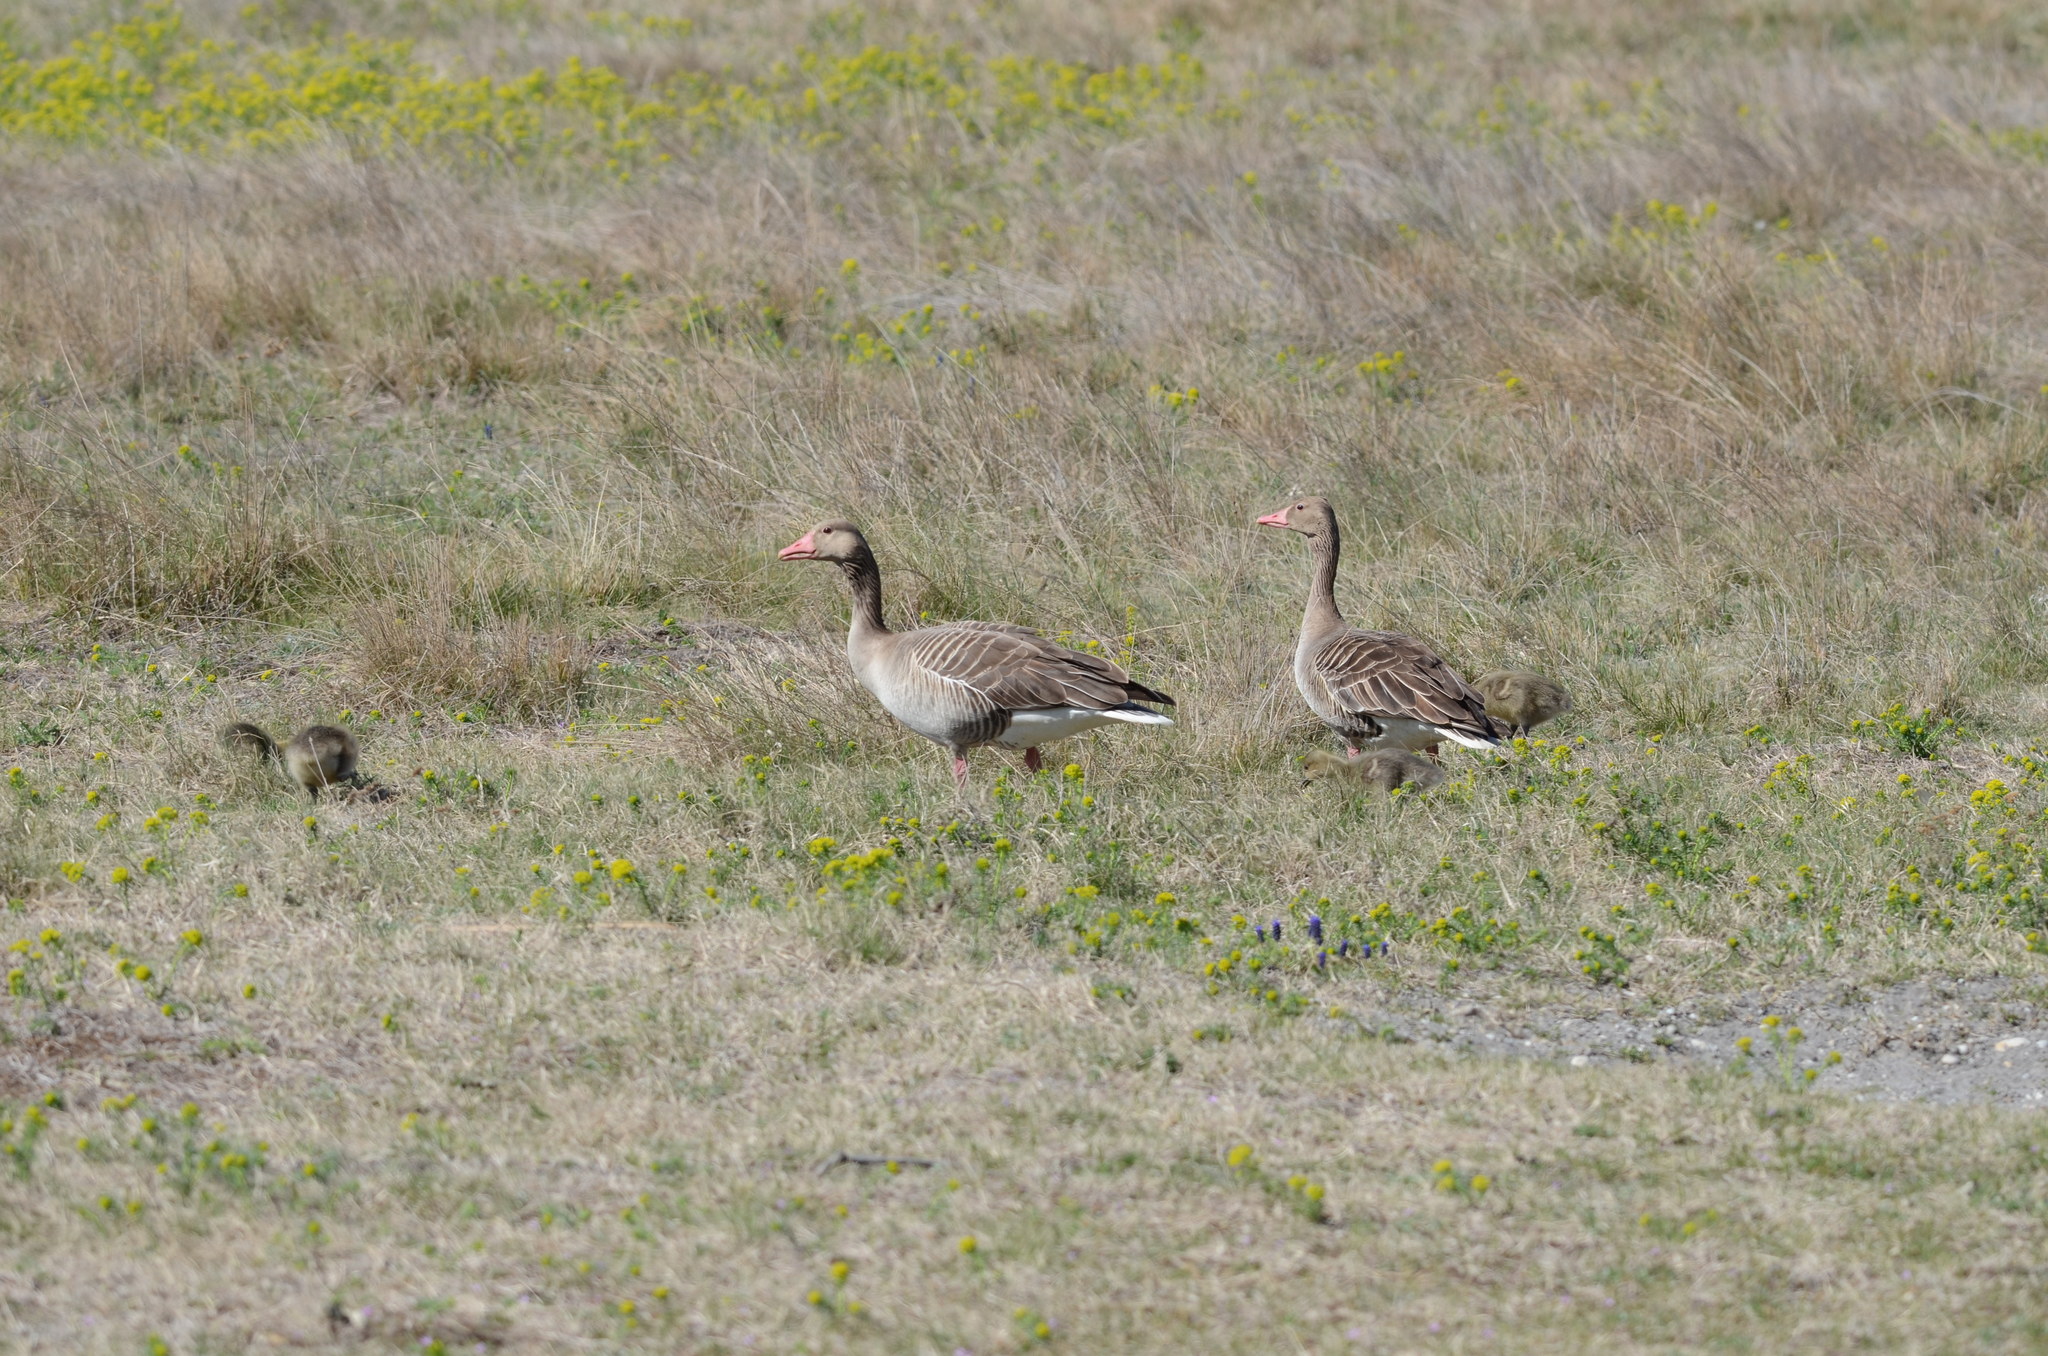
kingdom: Animalia
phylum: Chordata
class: Aves
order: Anseriformes
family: Anatidae
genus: Anser
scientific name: Anser anser
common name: Greylag goose
